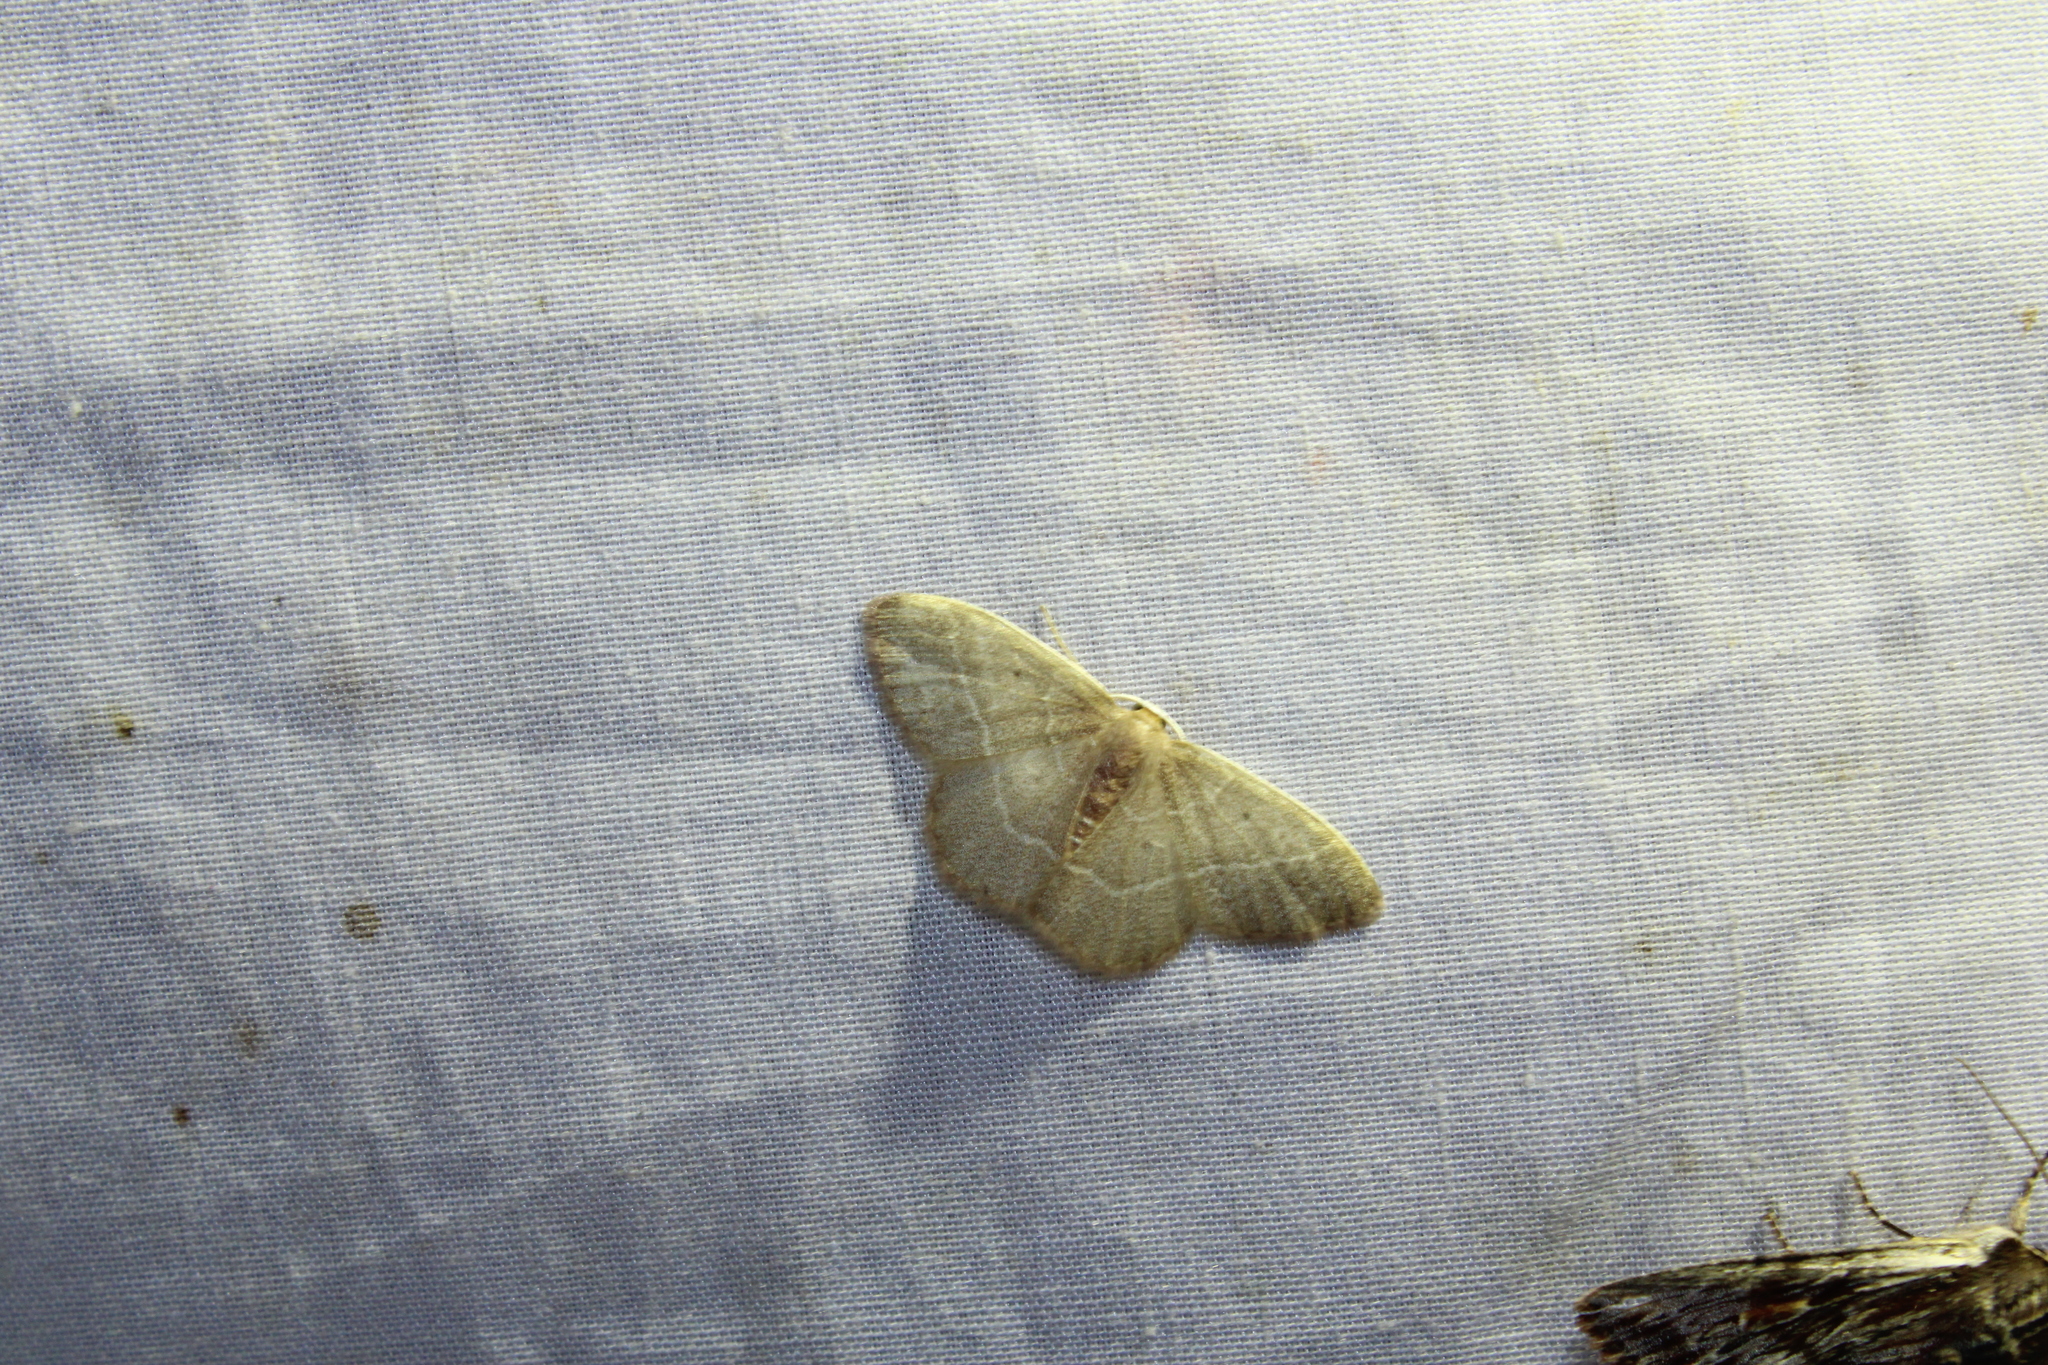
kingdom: Animalia
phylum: Arthropoda
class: Insecta
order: Lepidoptera
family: Geometridae
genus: Nemoria
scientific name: Nemoria bistriaria
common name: Red-fringed emerald
